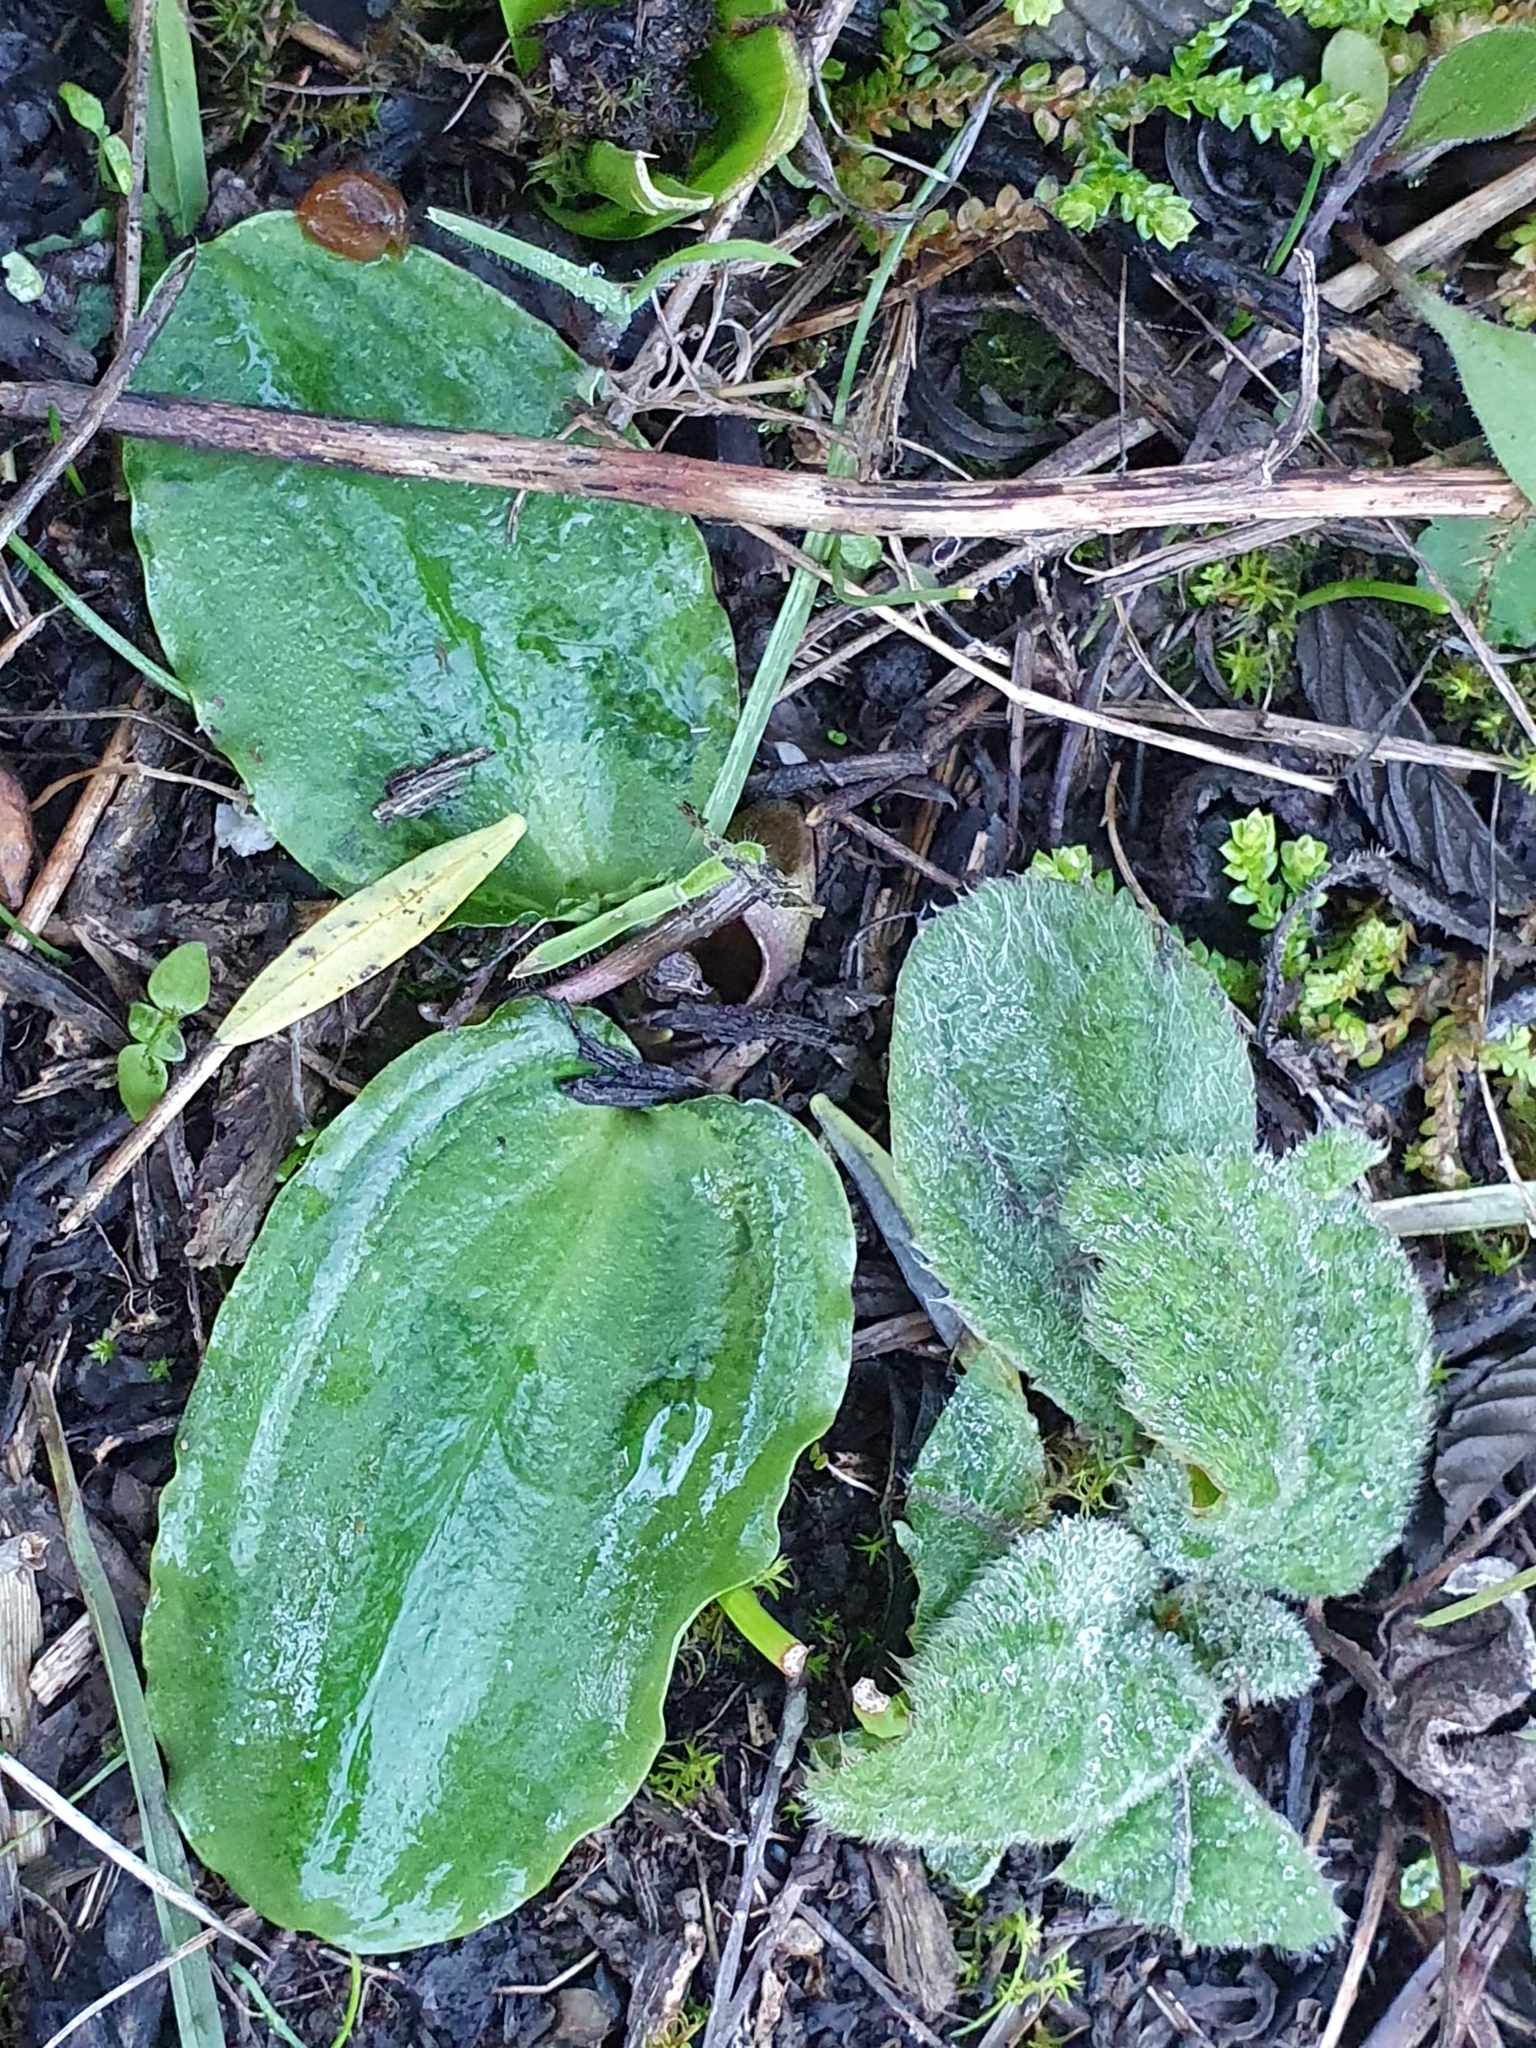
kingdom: Plantae
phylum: Tracheophyta
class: Liliopsida
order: Alismatales
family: Araceae
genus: Ambrosina
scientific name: Ambrosina bassii
